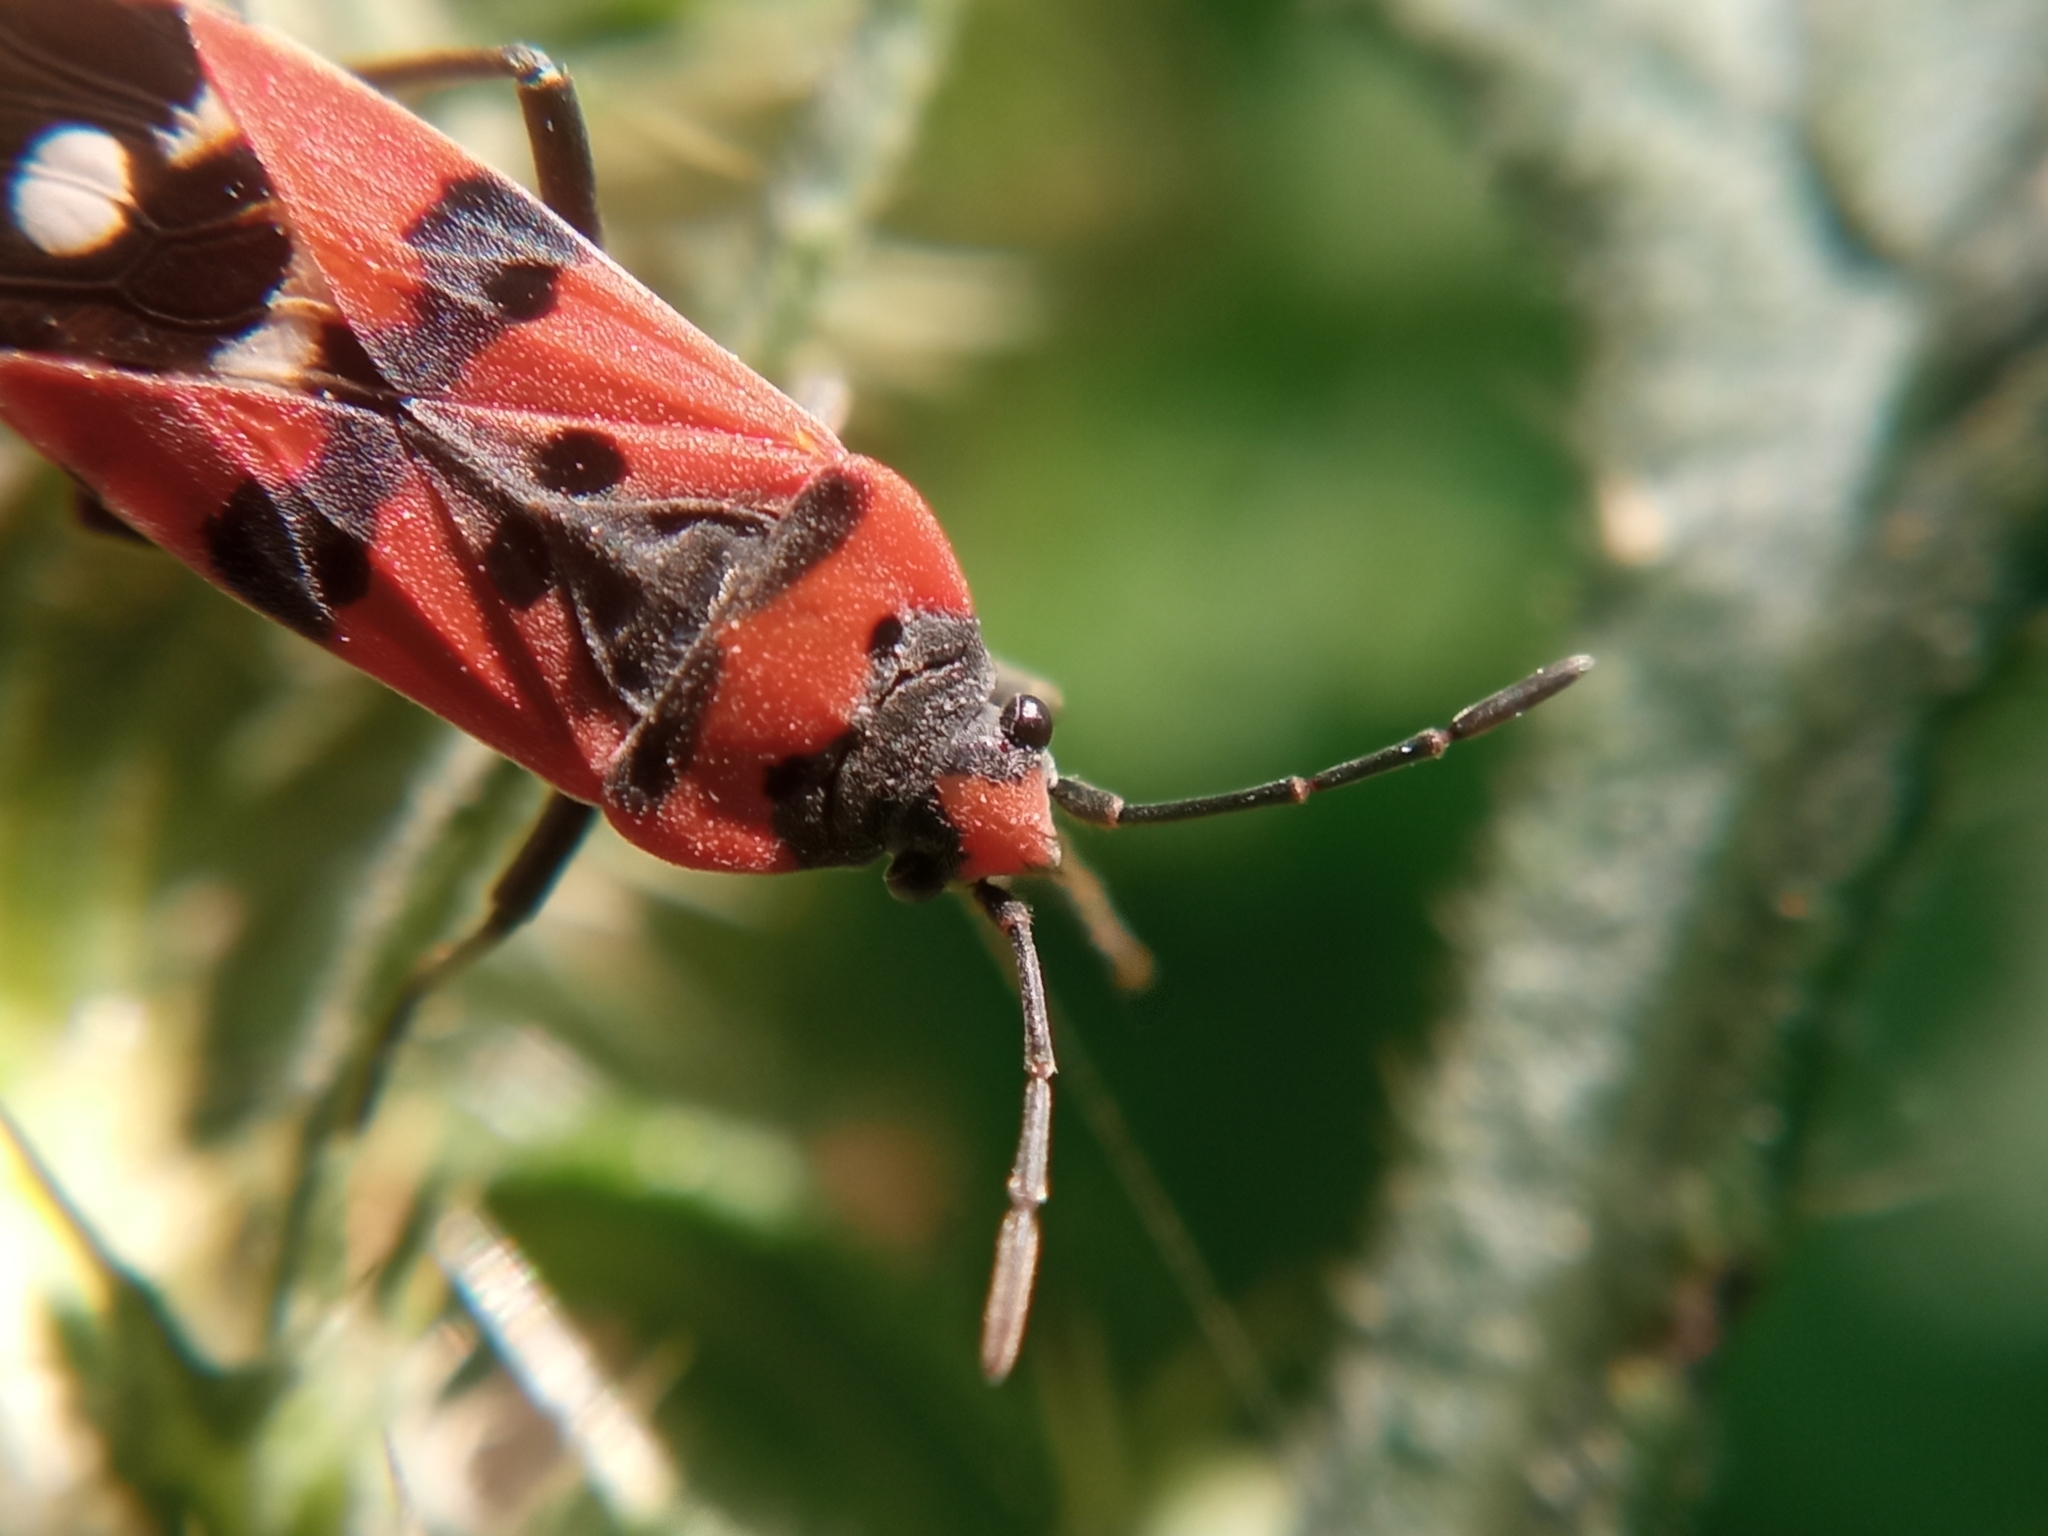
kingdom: Animalia
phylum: Arthropoda
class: Insecta
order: Hemiptera
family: Lygaeidae
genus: Lygaeus
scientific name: Lygaeus simulans
